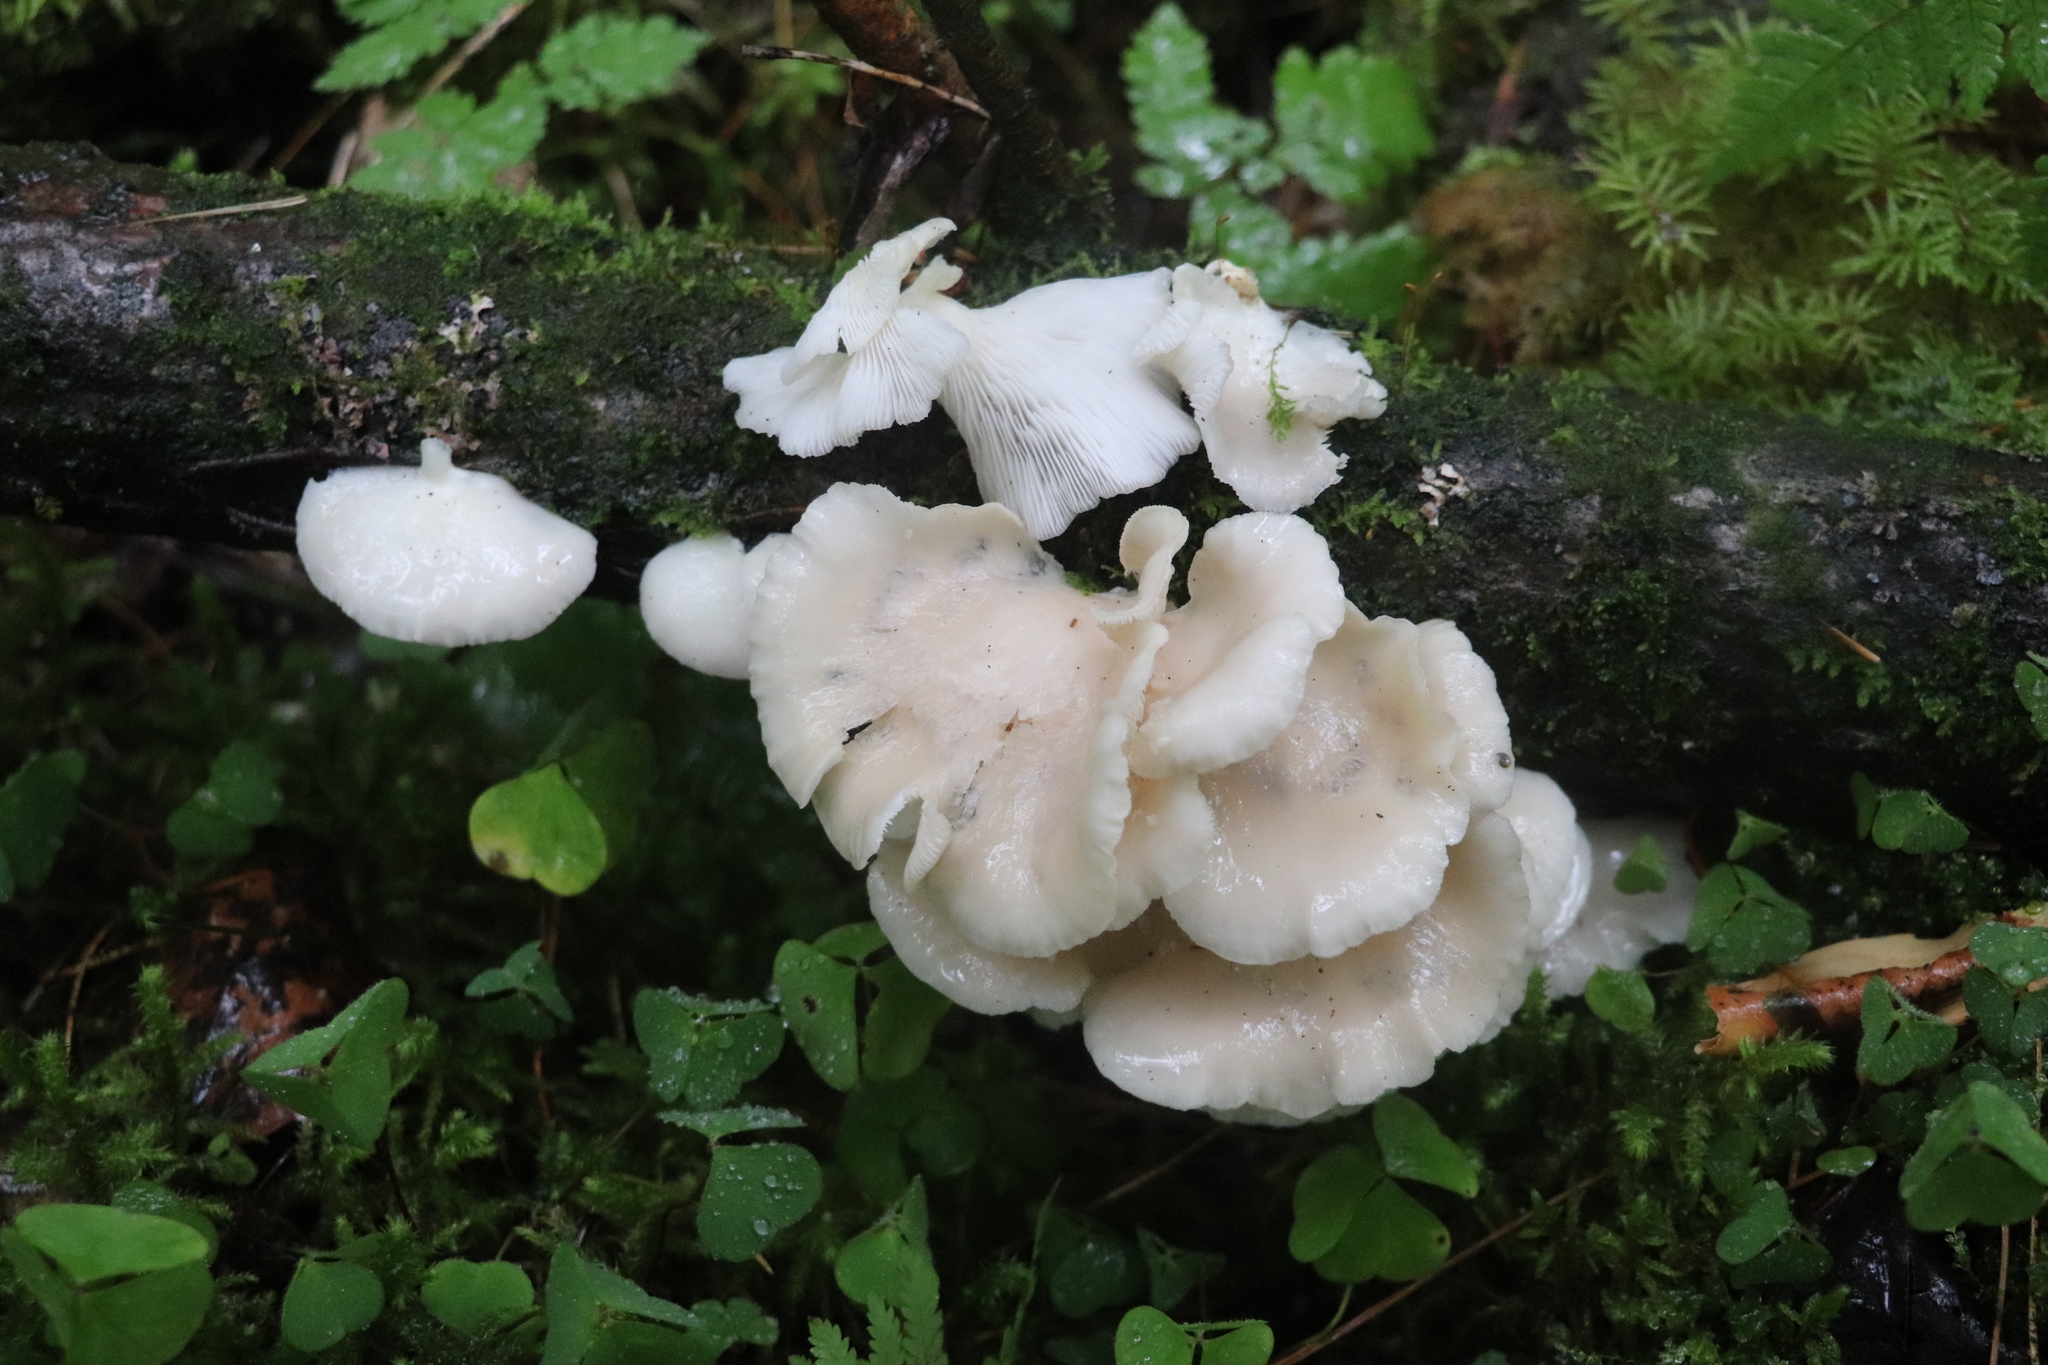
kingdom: Fungi
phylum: Basidiomycota
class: Agaricomycetes
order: Agaricales
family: Pleurotaceae
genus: Pleurotus
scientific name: Pleurotus pulmonarius
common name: Pale oyster
